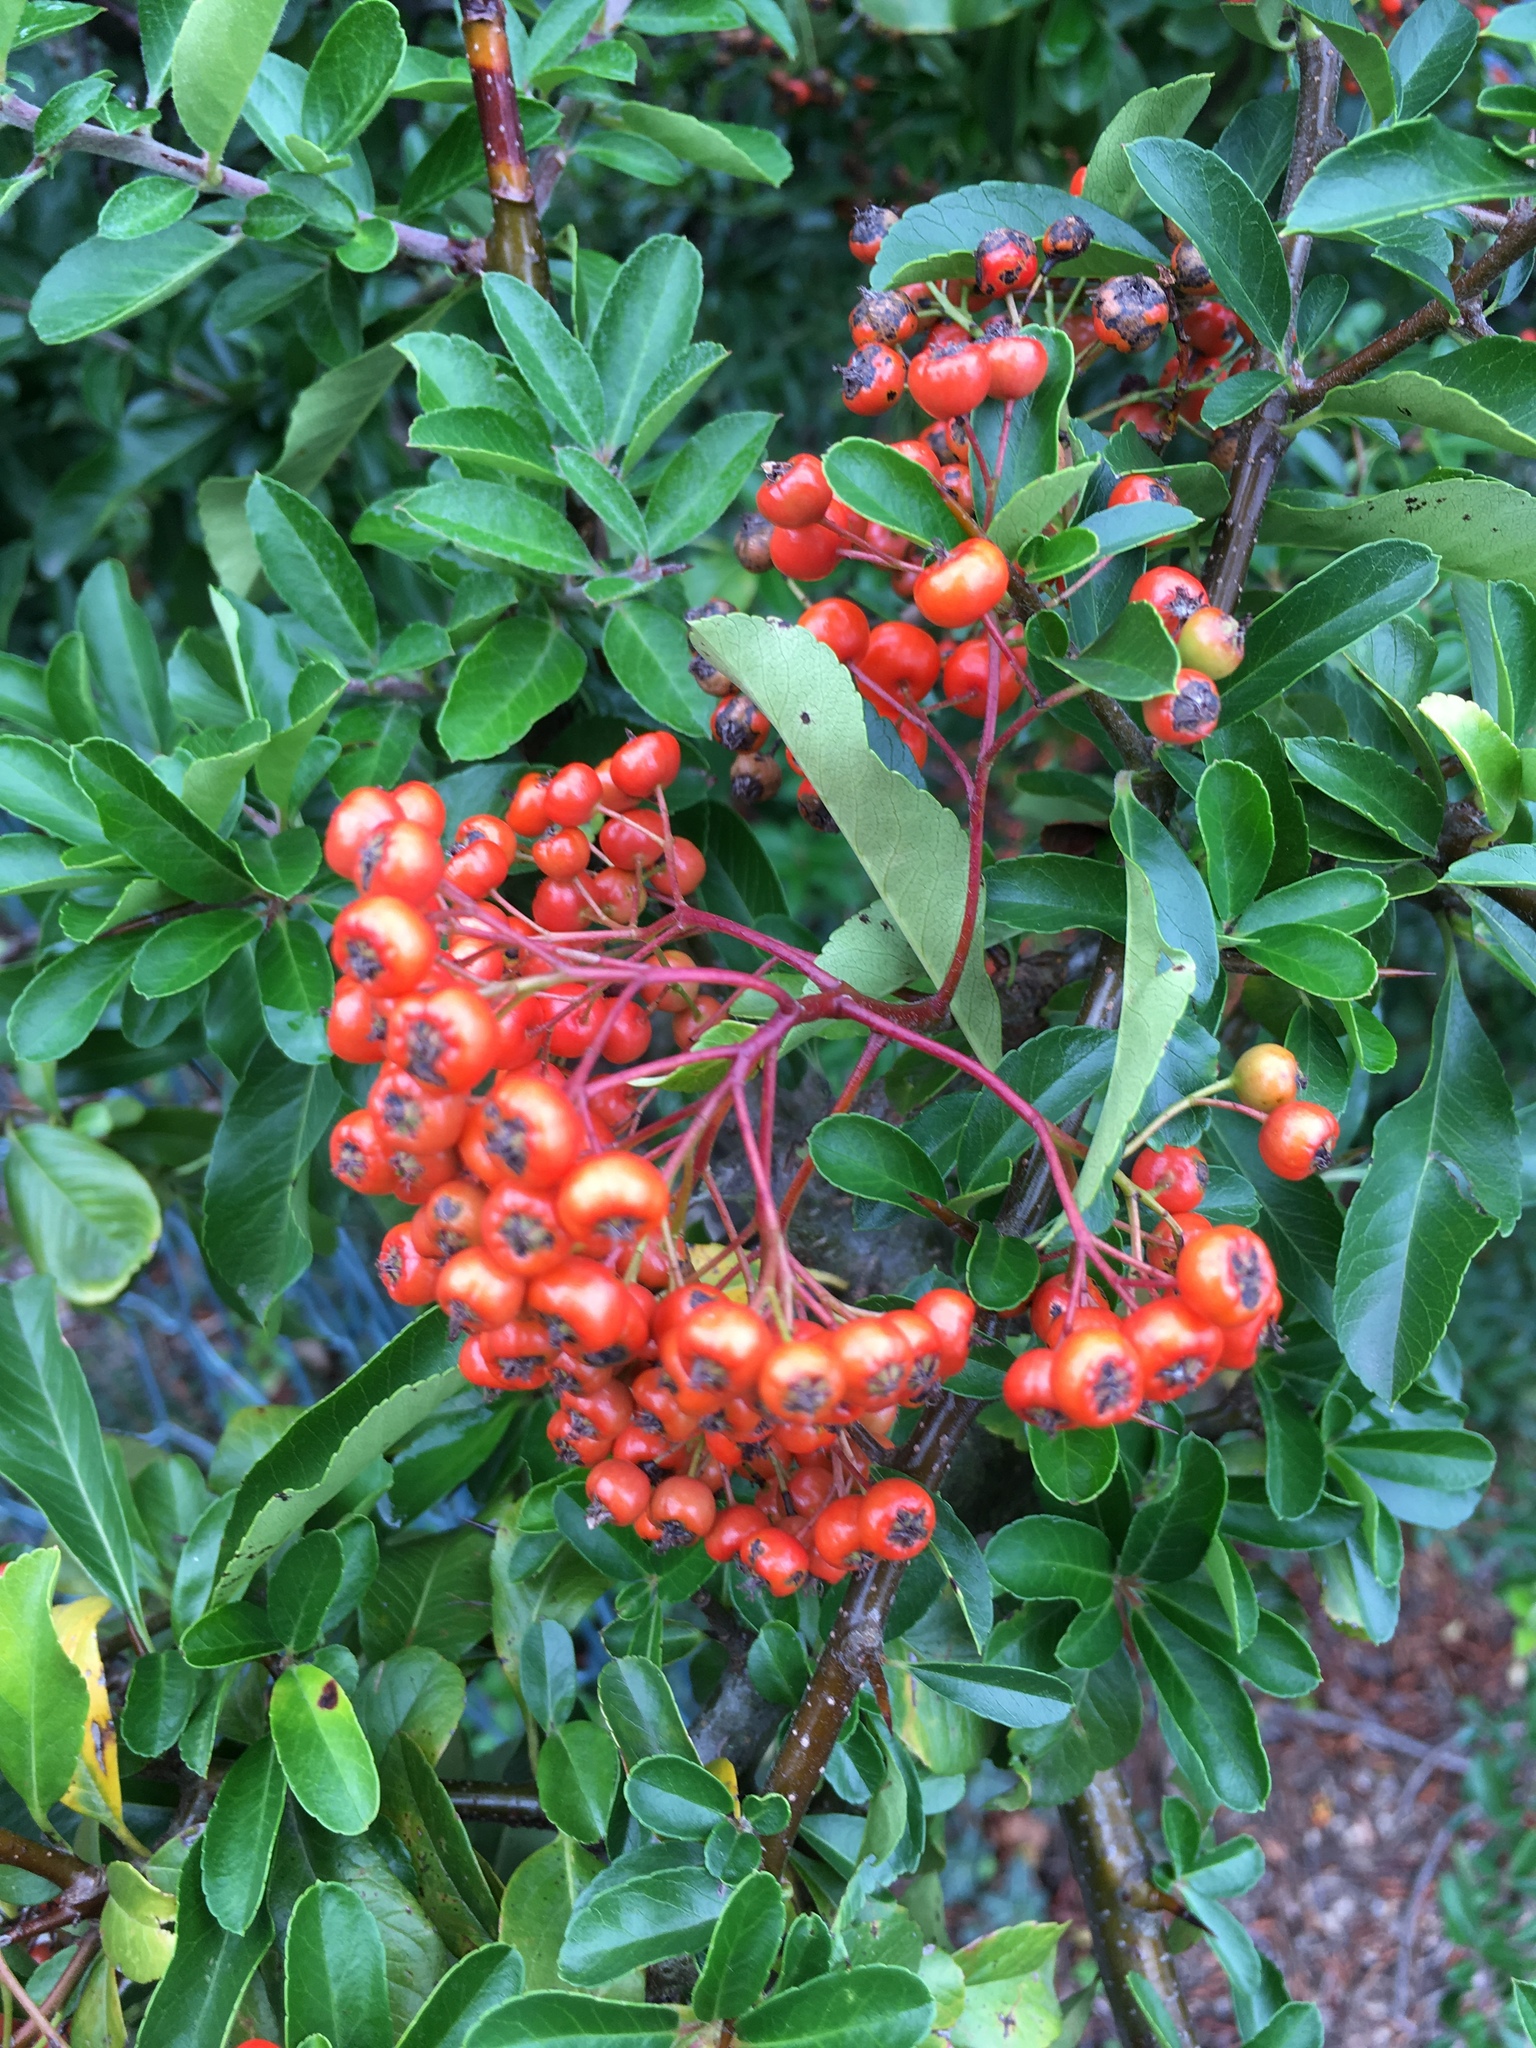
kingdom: Plantae
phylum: Tracheophyta
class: Magnoliopsida
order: Rosales
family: Rosaceae
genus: Pyracantha
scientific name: Pyracantha coccinea
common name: Firethorn
